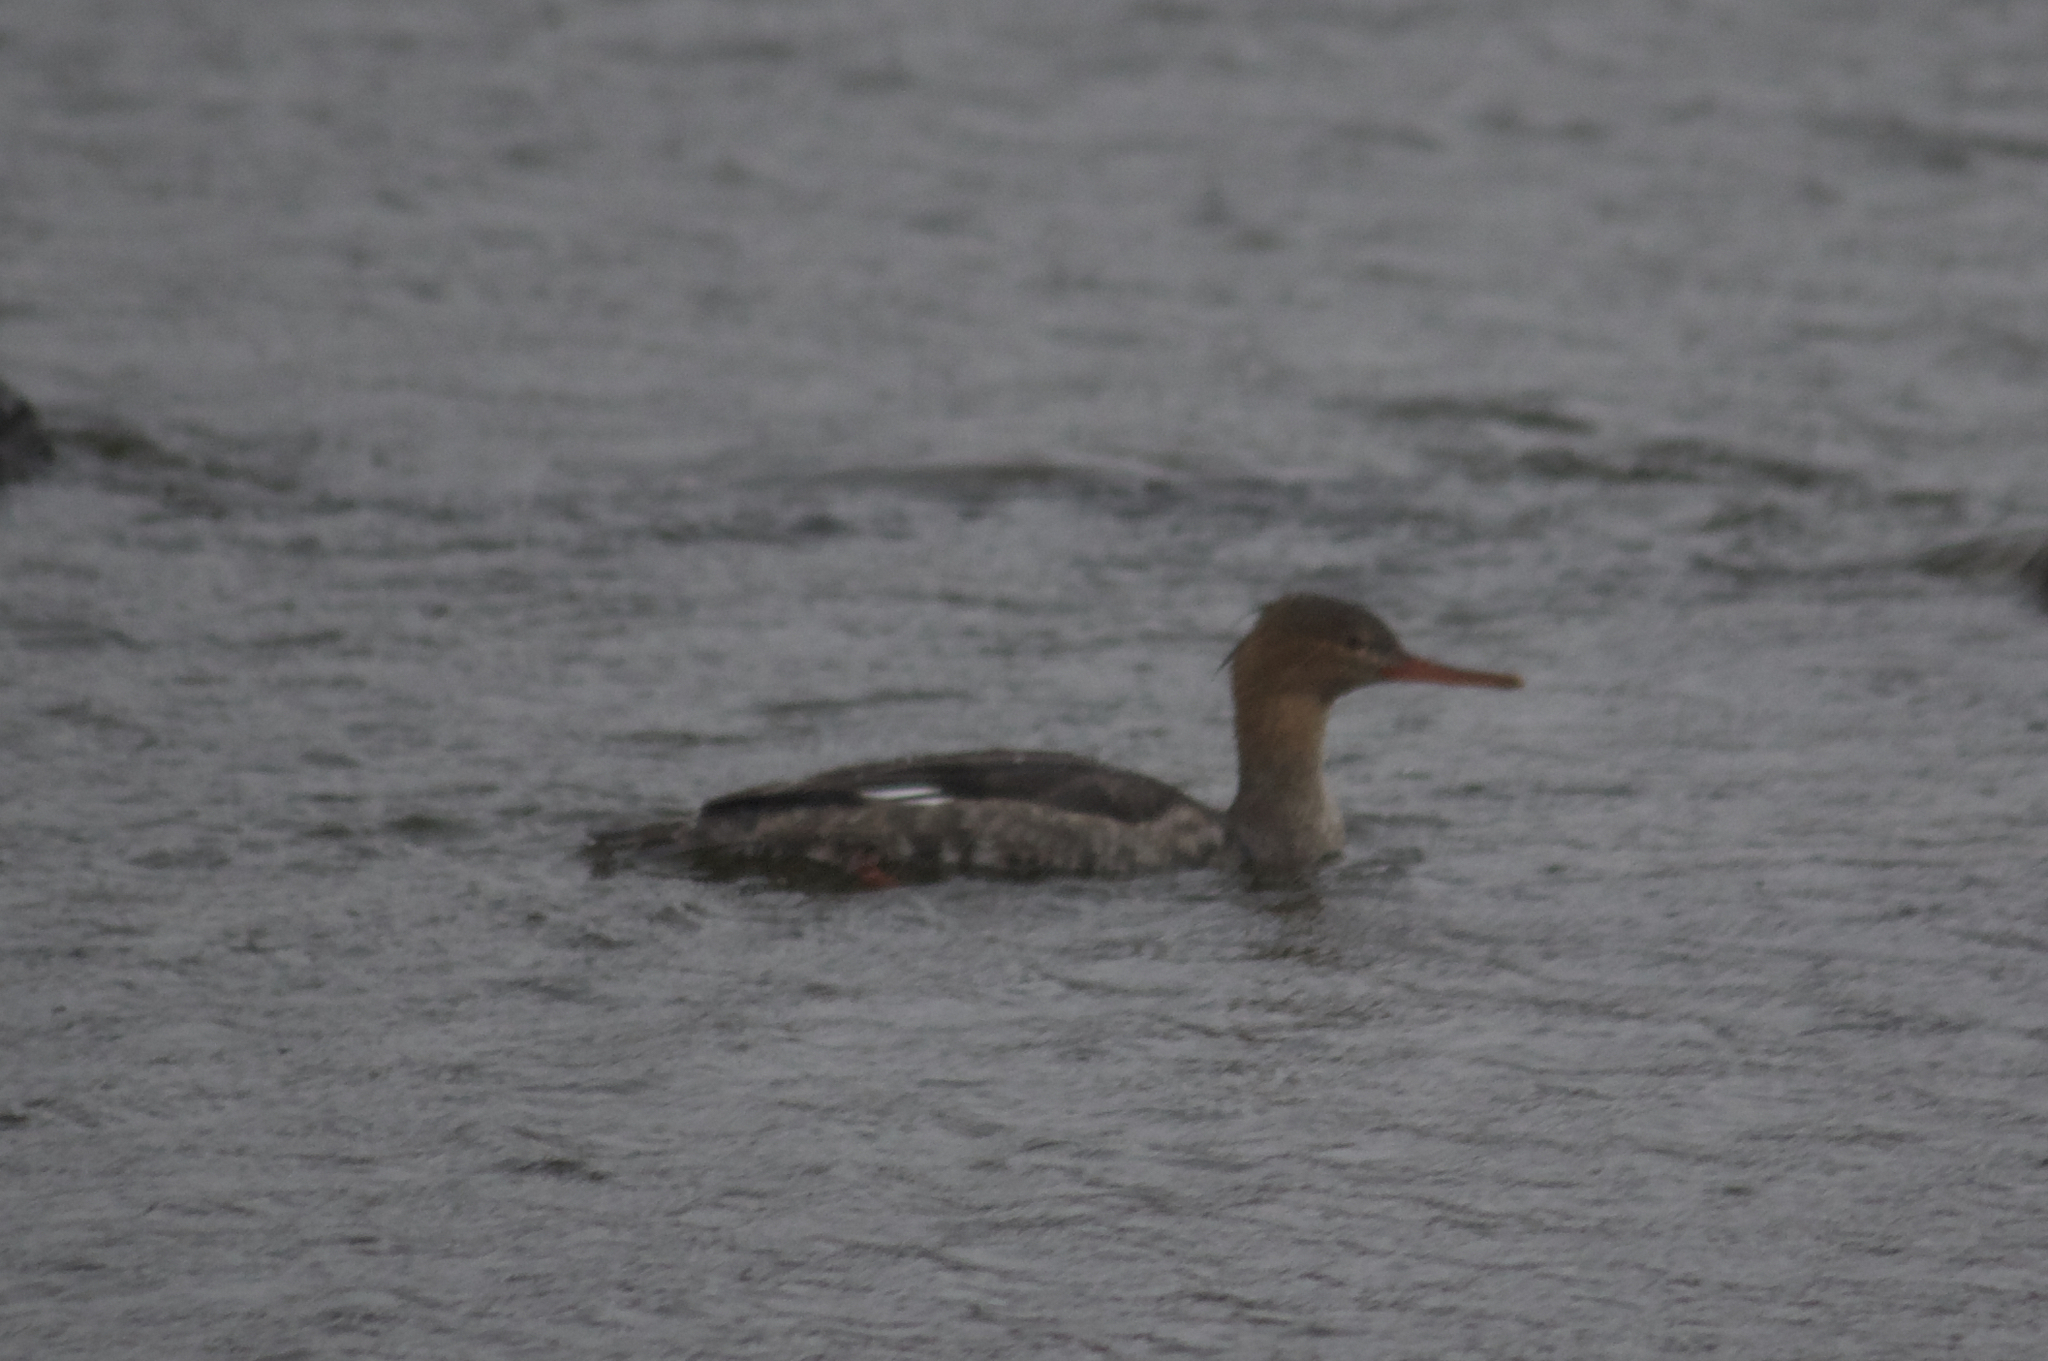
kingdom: Animalia
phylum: Chordata
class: Aves
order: Anseriformes
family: Anatidae
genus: Mergus
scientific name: Mergus serrator
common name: Red-breasted merganser
